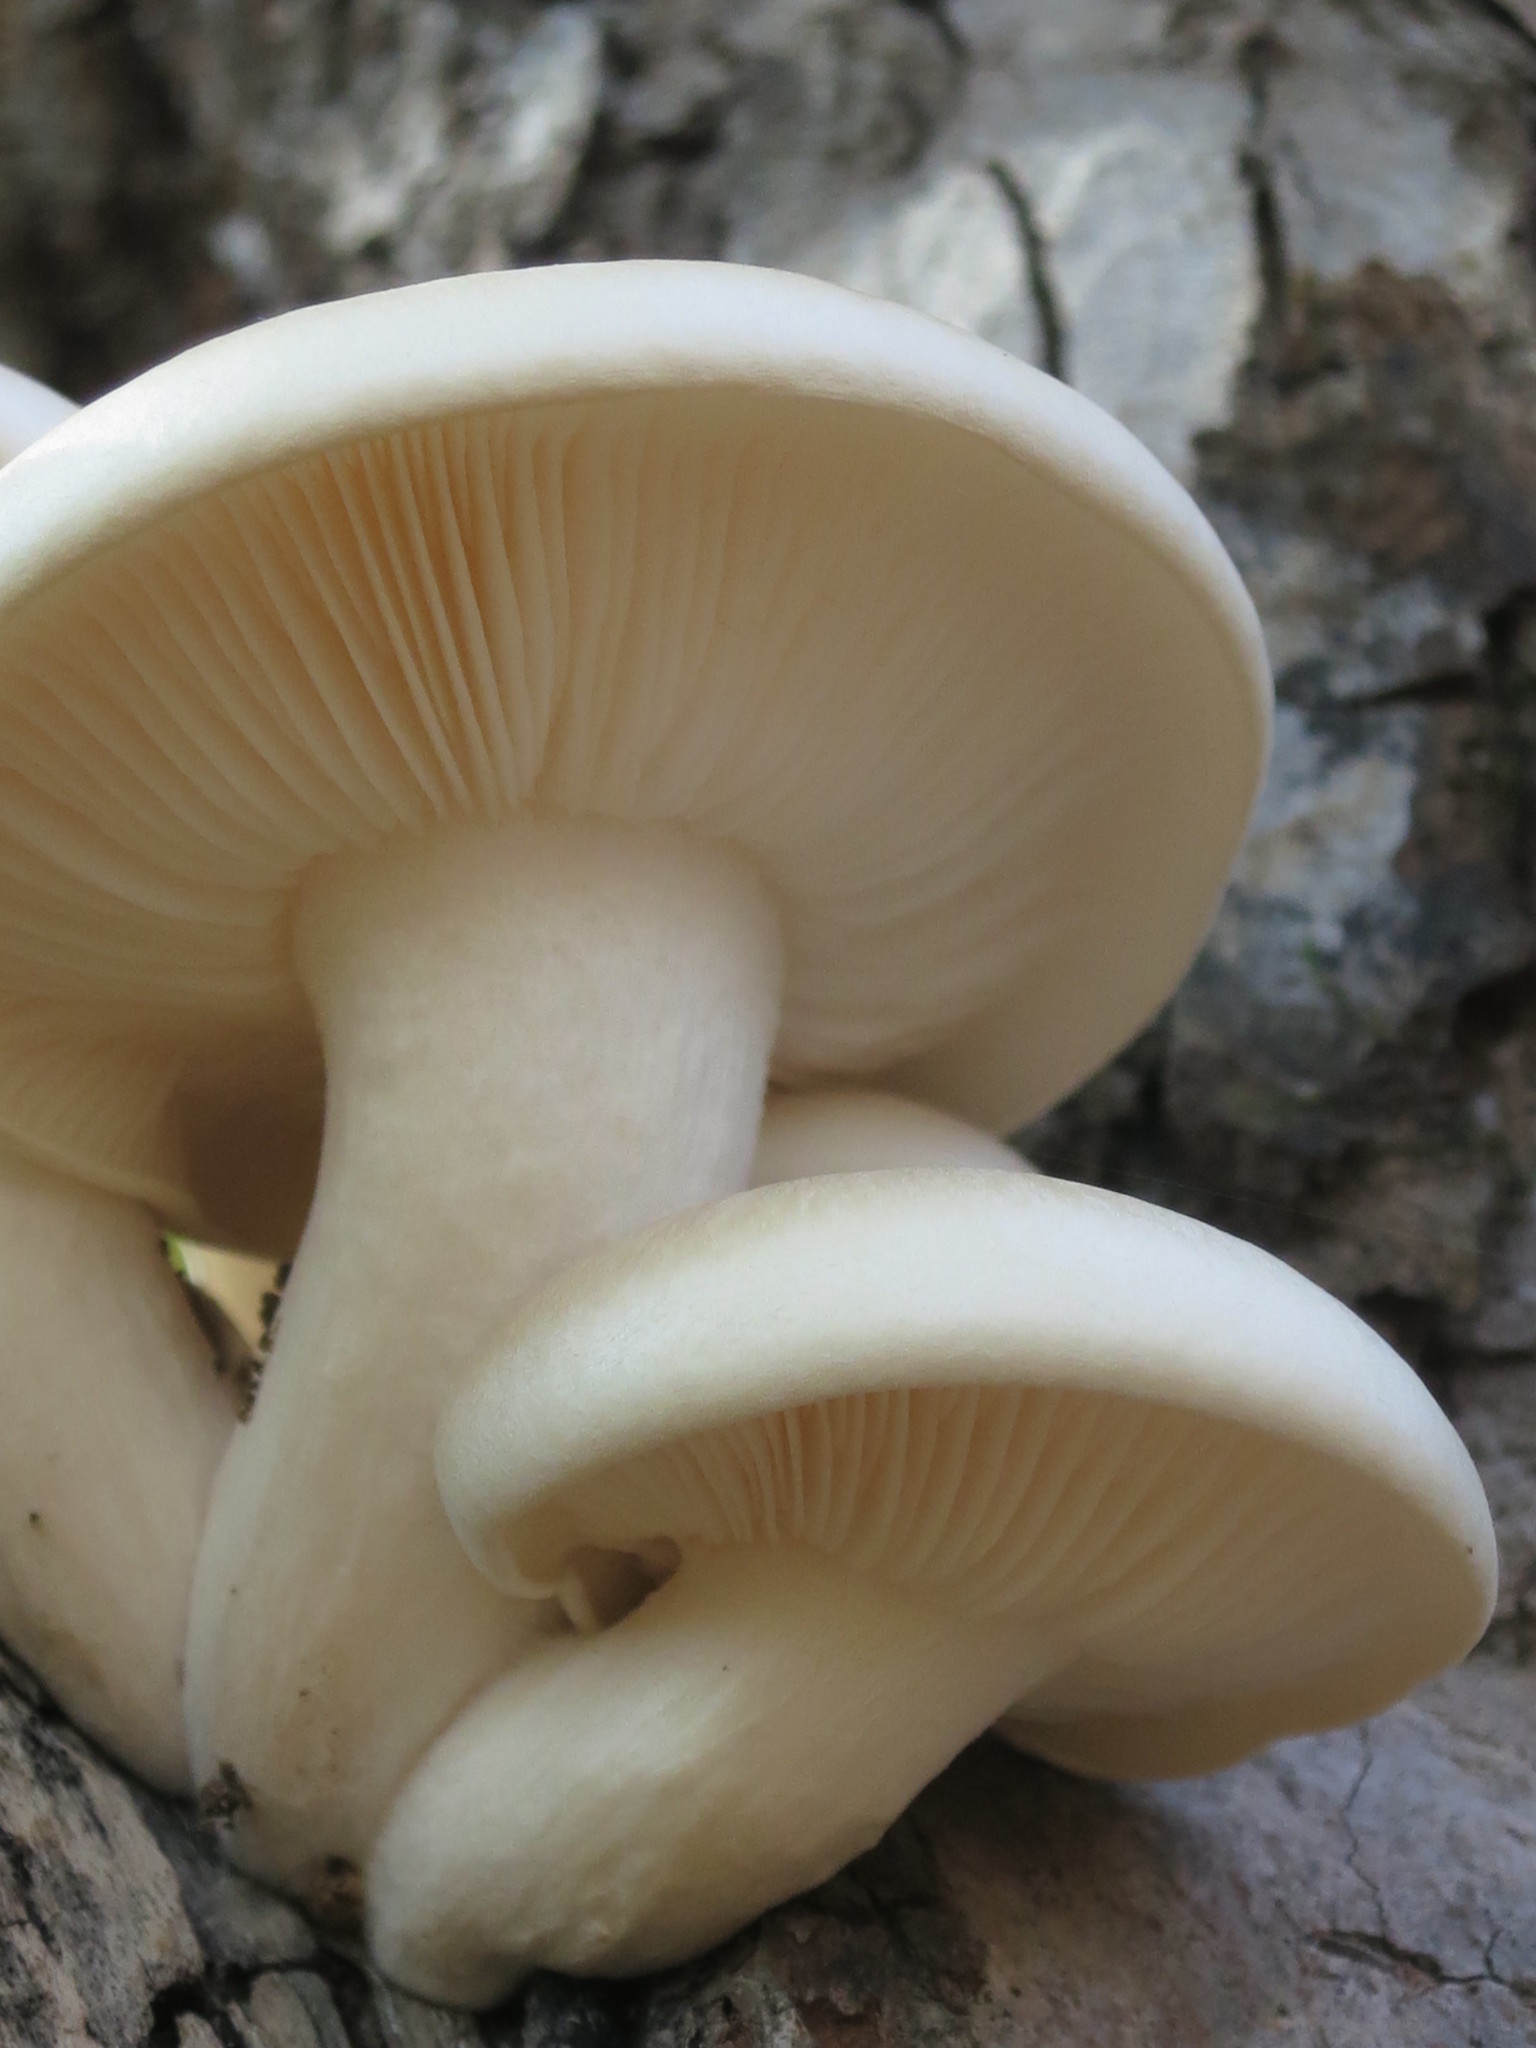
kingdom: Fungi
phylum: Basidiomycota
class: Agaricomycetes
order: Agaricales
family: Lyophyllaceae
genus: Hypsizygus
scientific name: Hypsizygus ulmarius
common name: Elm leech
